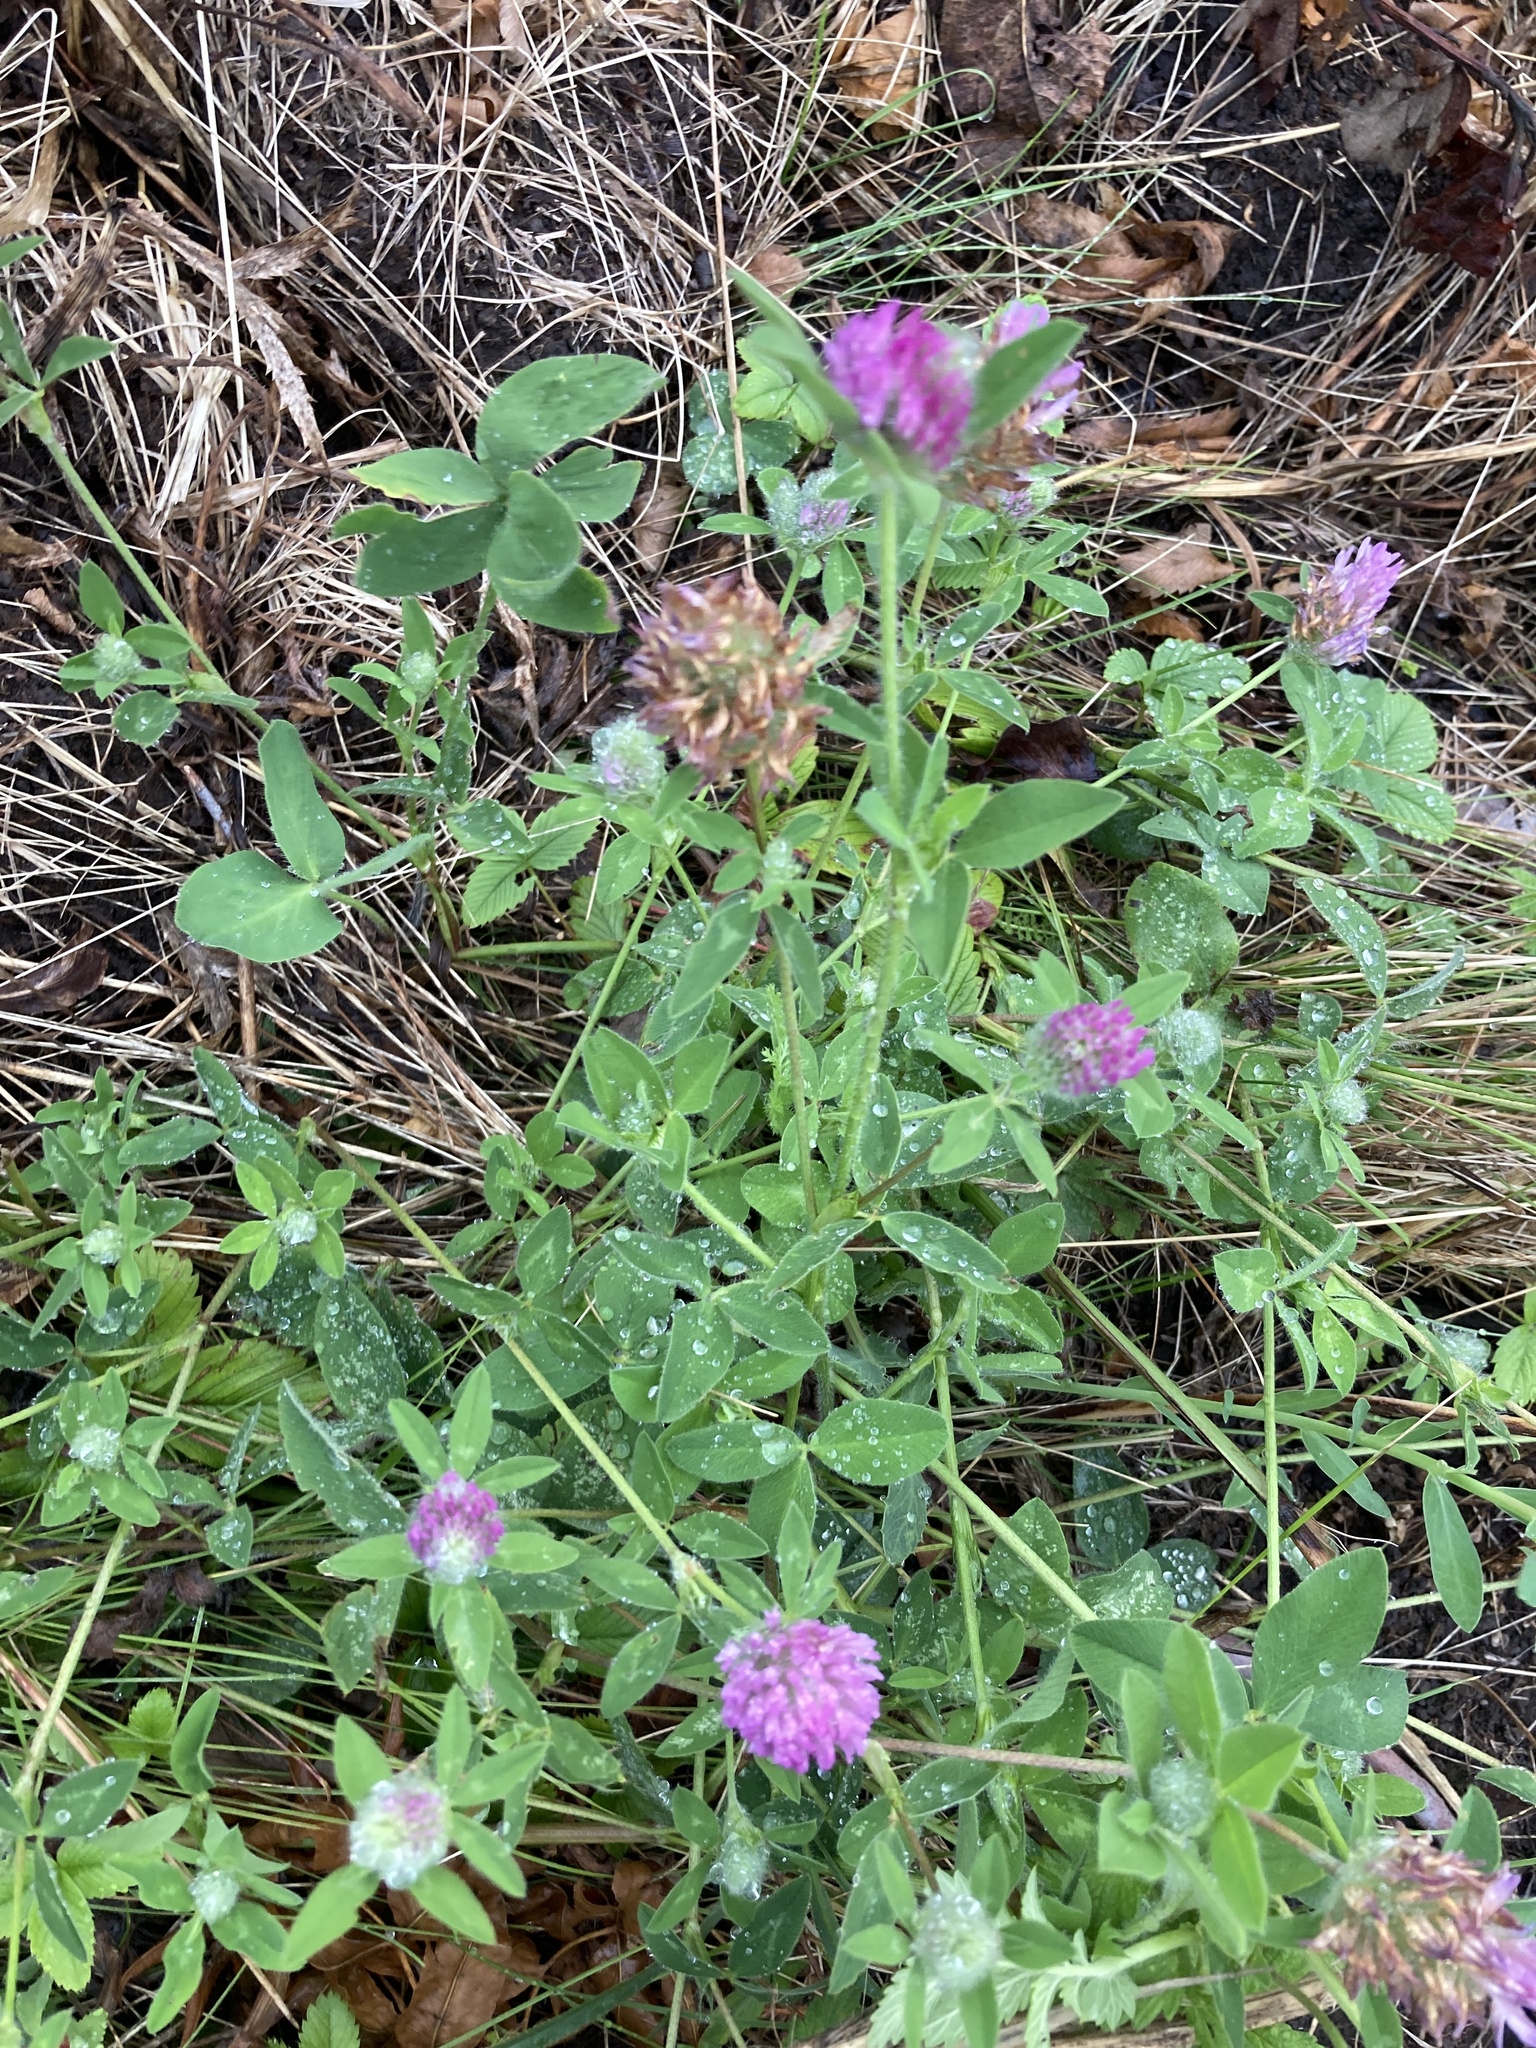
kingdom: Plantae
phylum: Tracheophyta
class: Magnoliopsida
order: Fabales
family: Fabaceae
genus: Trifolium
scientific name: Trifolium medium
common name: Zigzag clover
